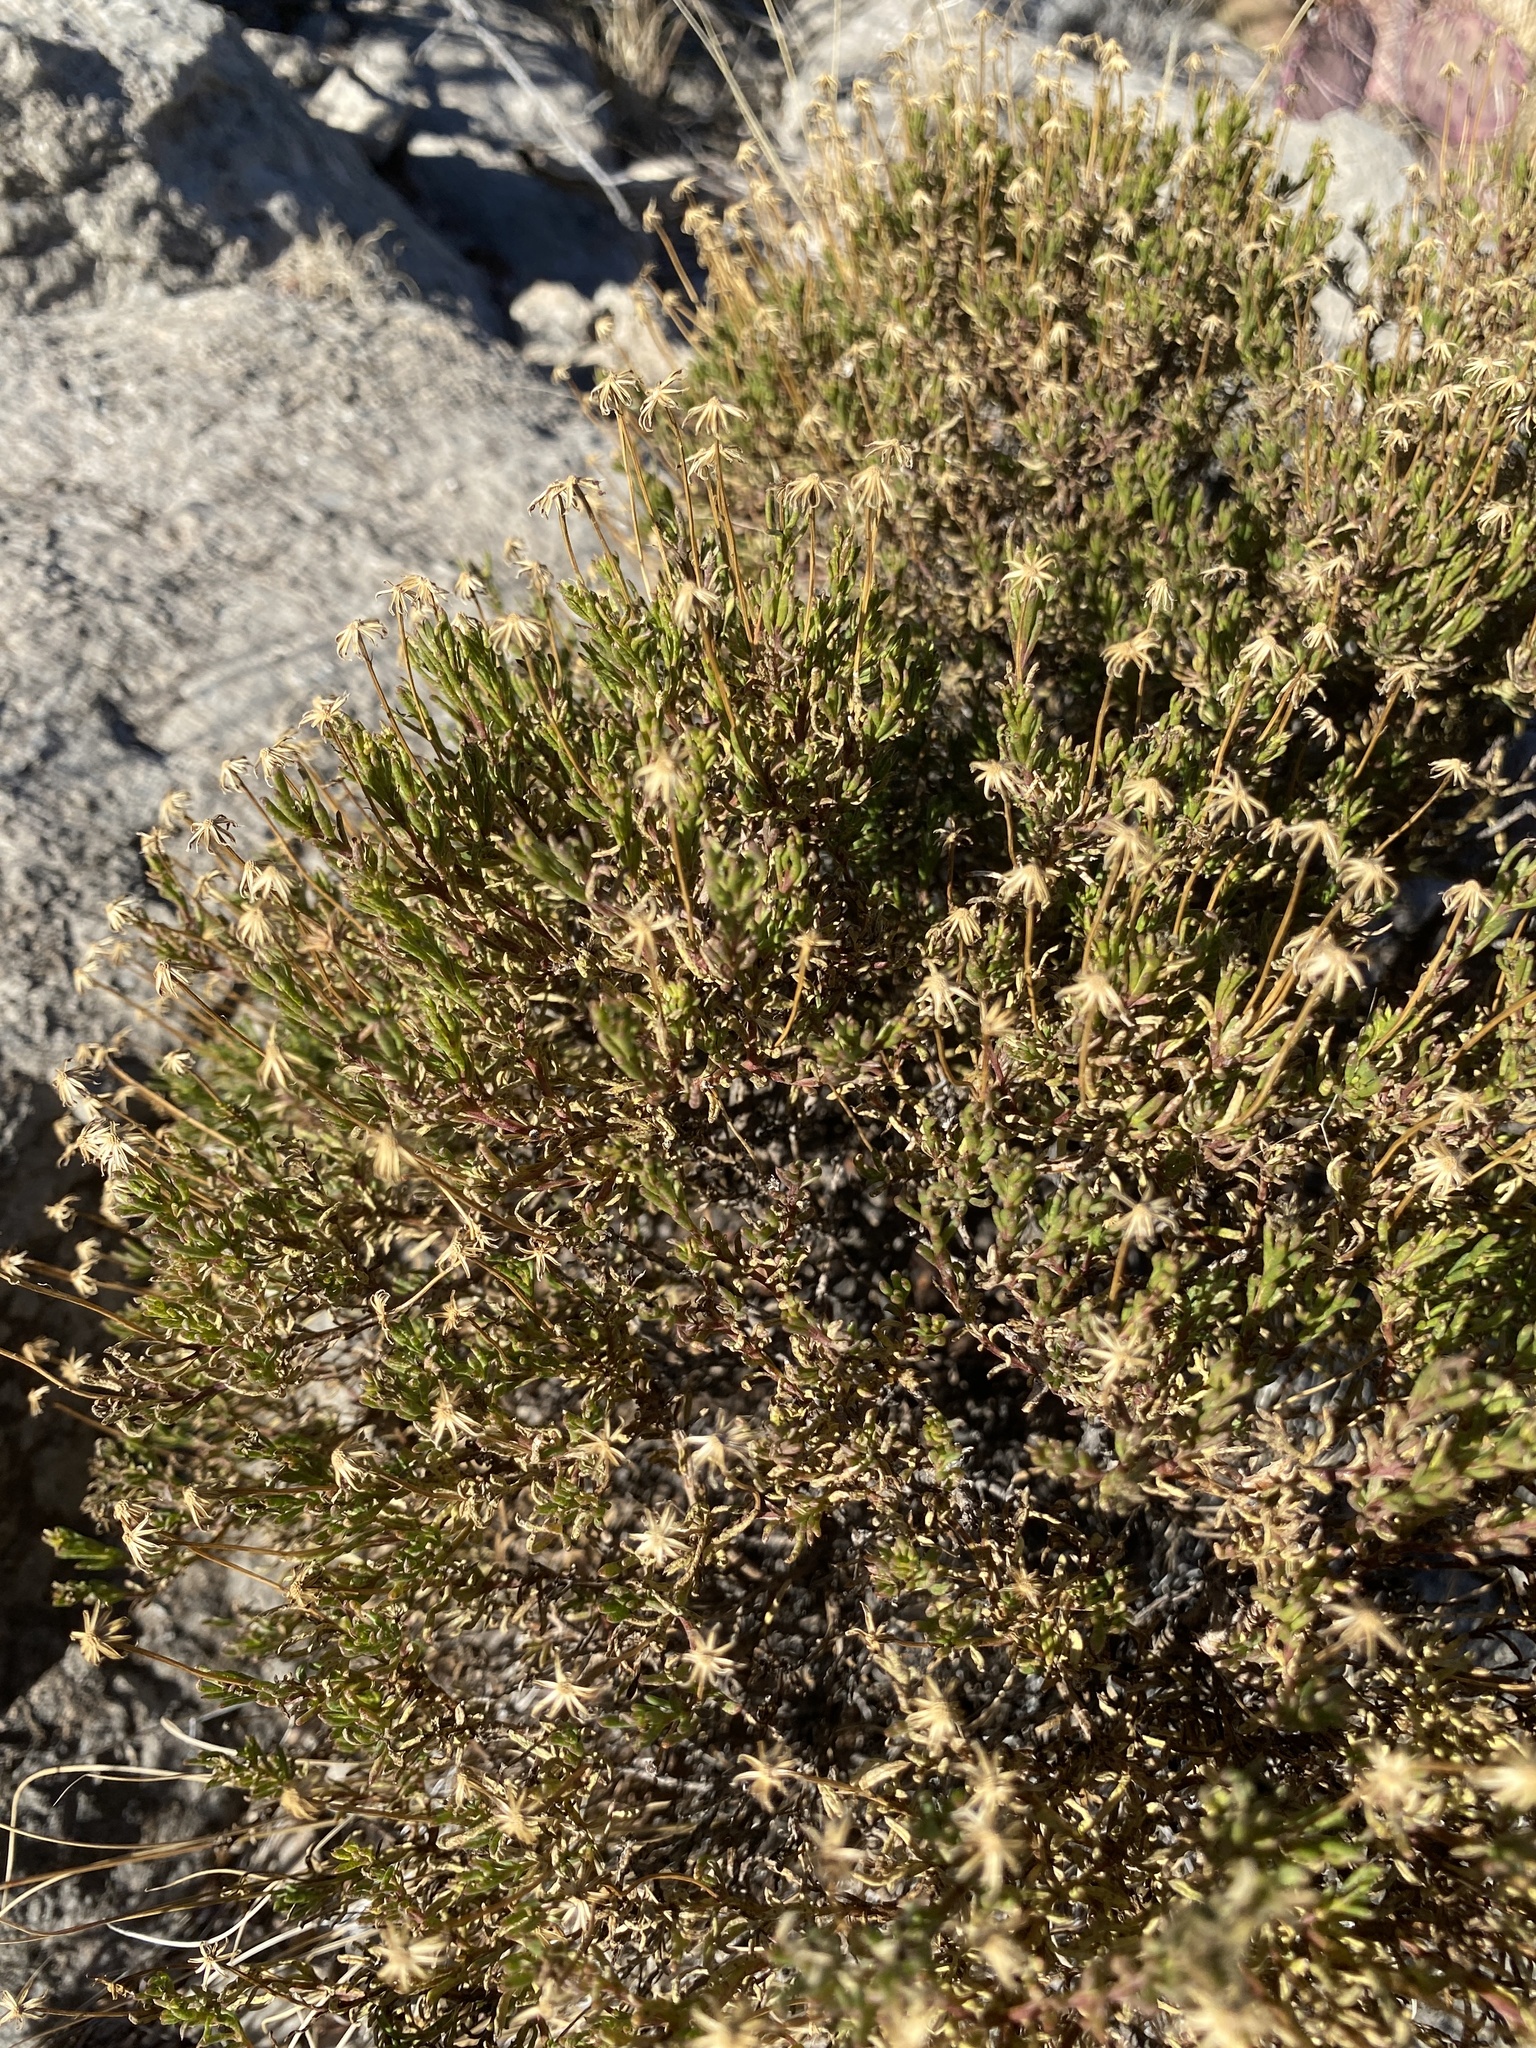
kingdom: Plantae
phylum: Tracheophyta
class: Magnoliopsida
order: Asterales
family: Asteraceae
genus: Chrysactinia
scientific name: Chrysactinia mexicana
